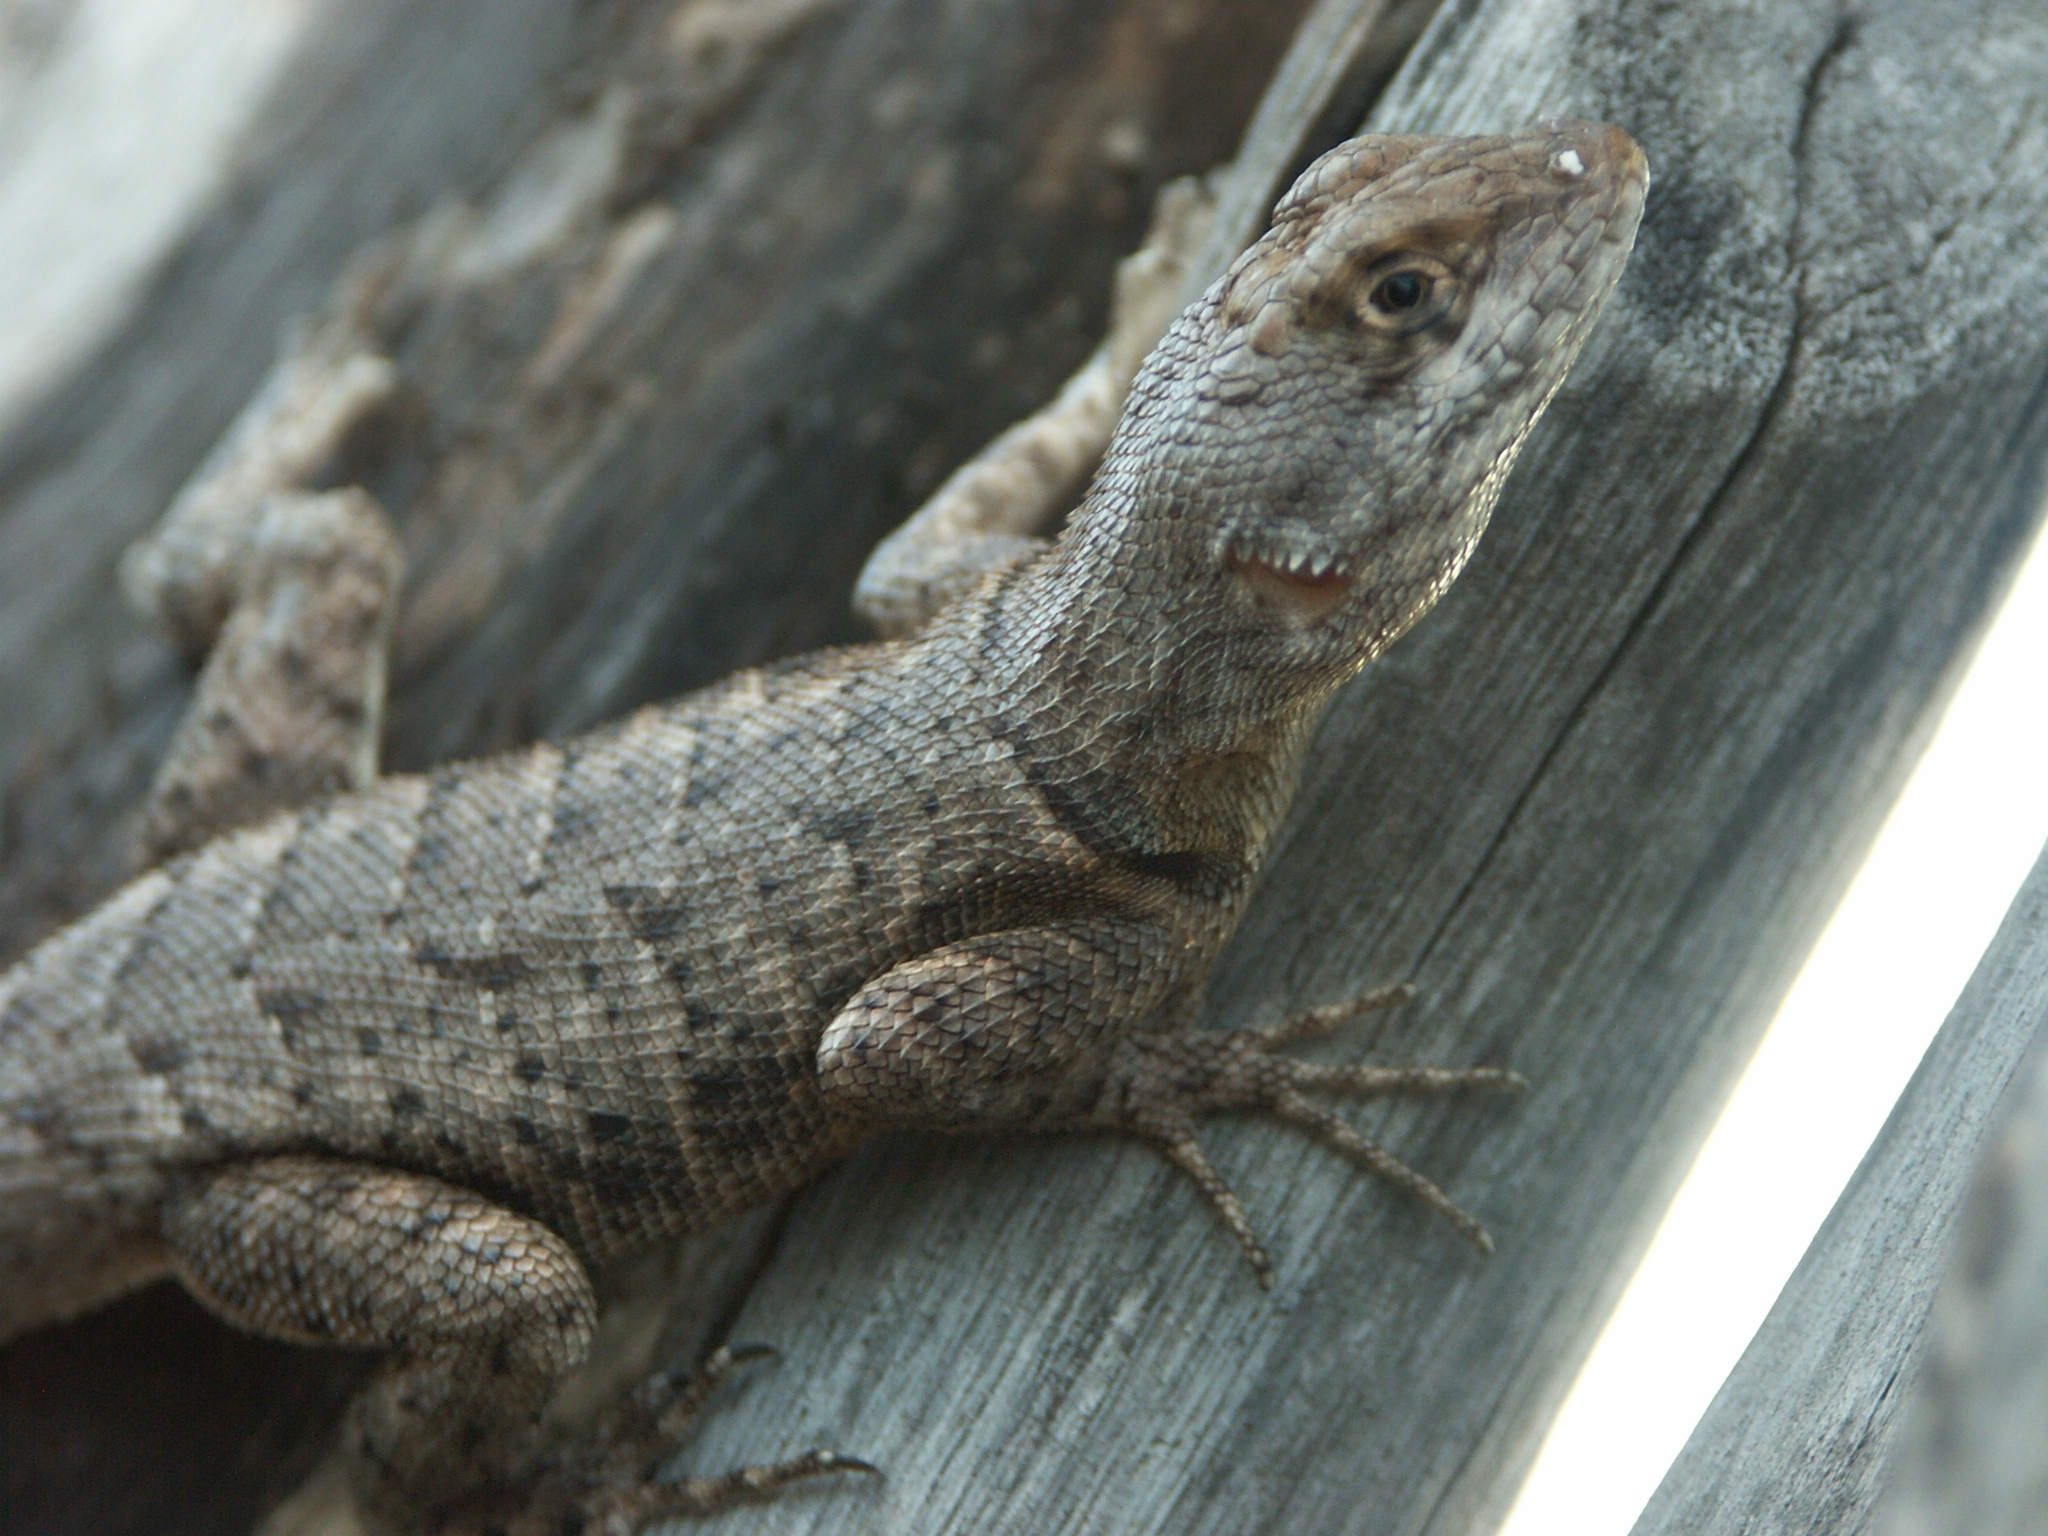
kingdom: Animalia
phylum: Chordata
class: Squamata
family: Tropiduridae
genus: Tropidurus
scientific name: Tropidurus hispidus
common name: Peters' lava lizard
